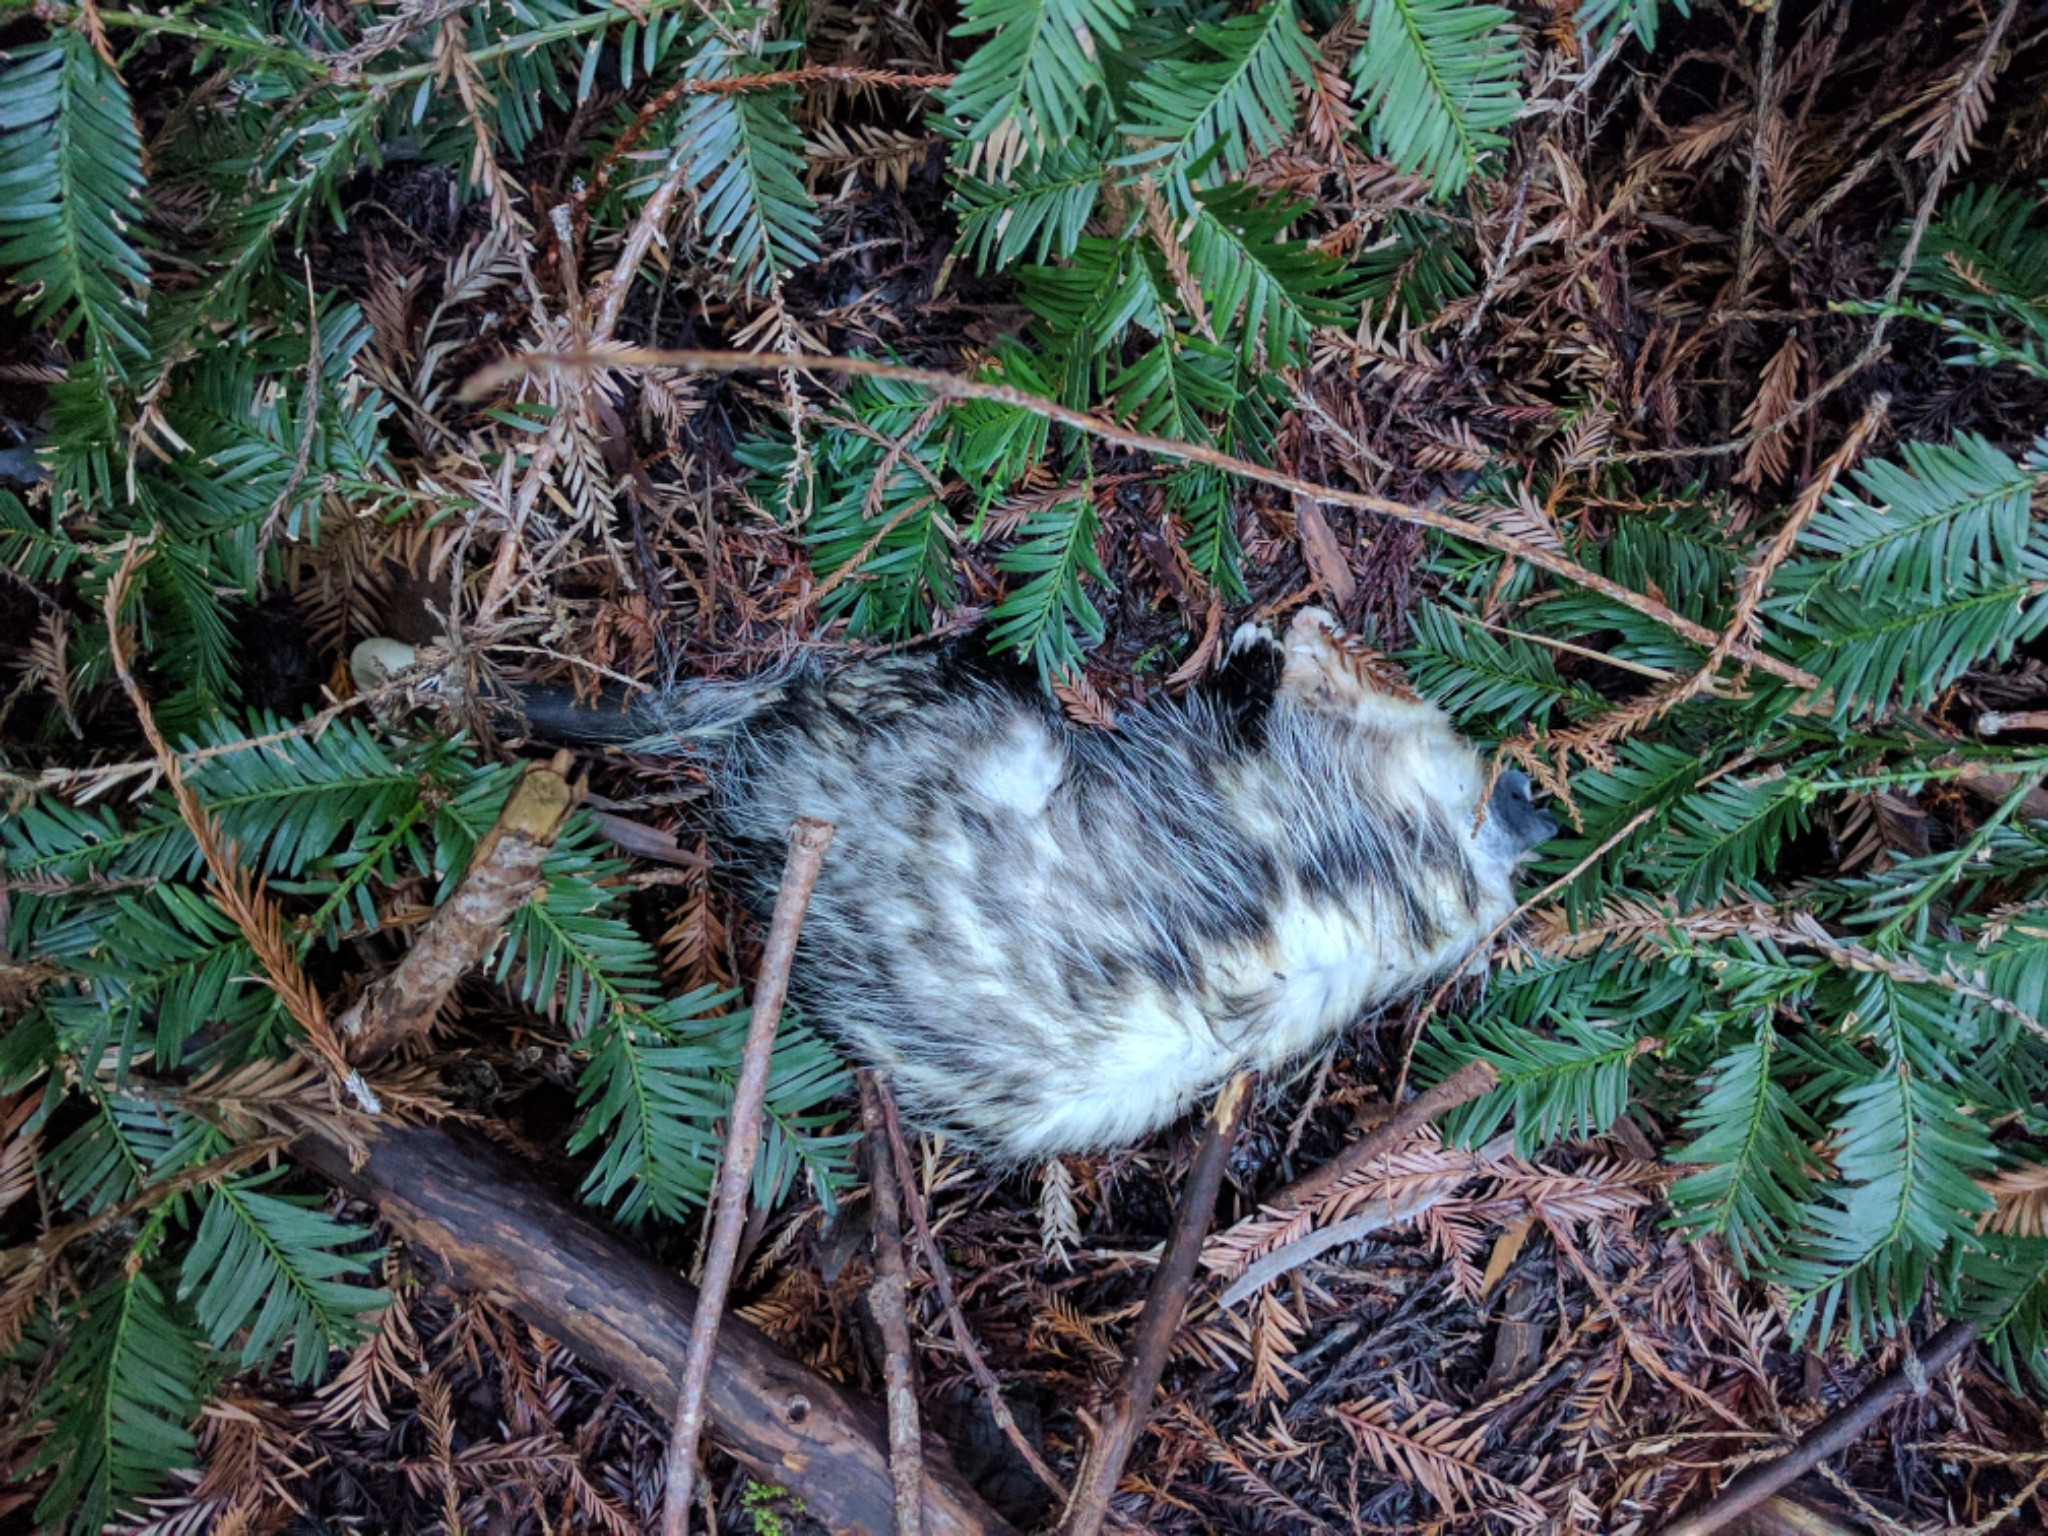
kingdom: Animalia
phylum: Chordata
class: Mammalia
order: Didelphimorphia
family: Didelphidae
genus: Didelphis
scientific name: Didelphis virginiana
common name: Virginia opossum
